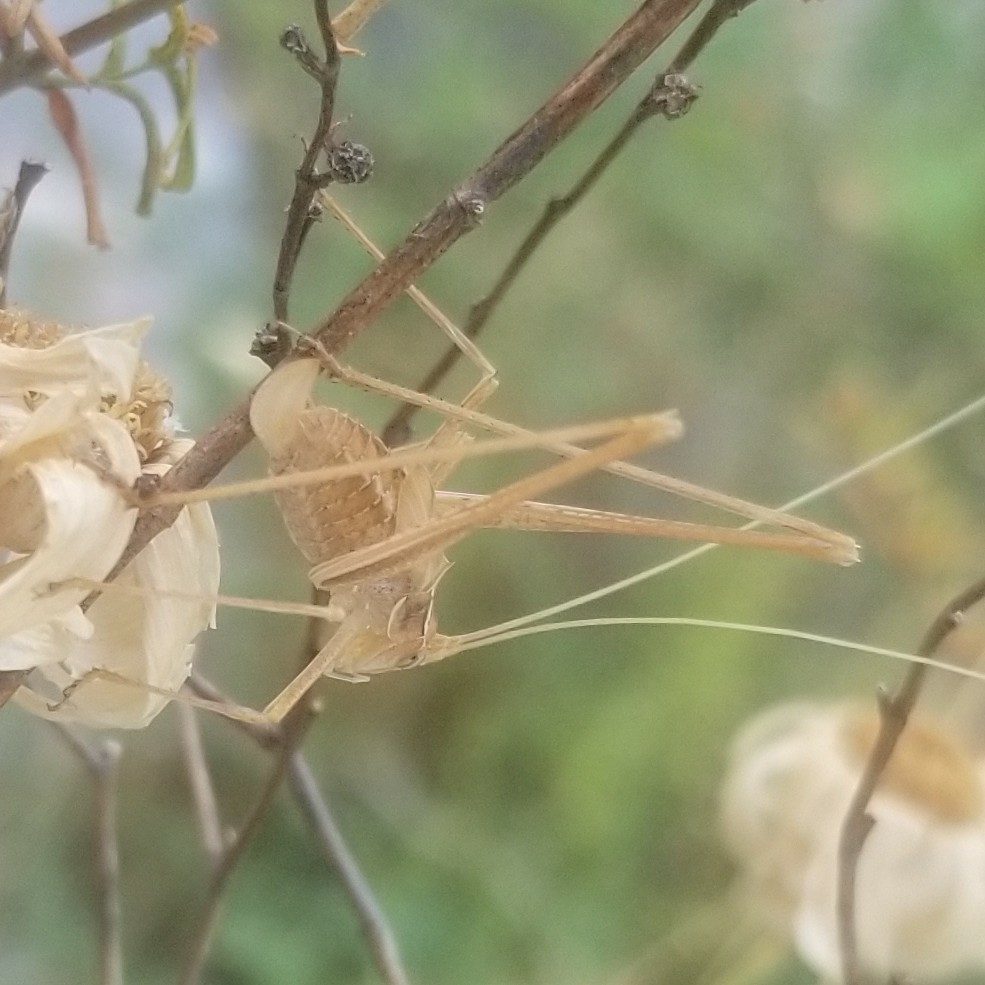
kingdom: Animalia
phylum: Arthropoda
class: Insecta
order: Orthoptera
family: Tettigoniidae
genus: Tylopsis
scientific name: Tylopsis lilifolia
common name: Lily bush-cricket
